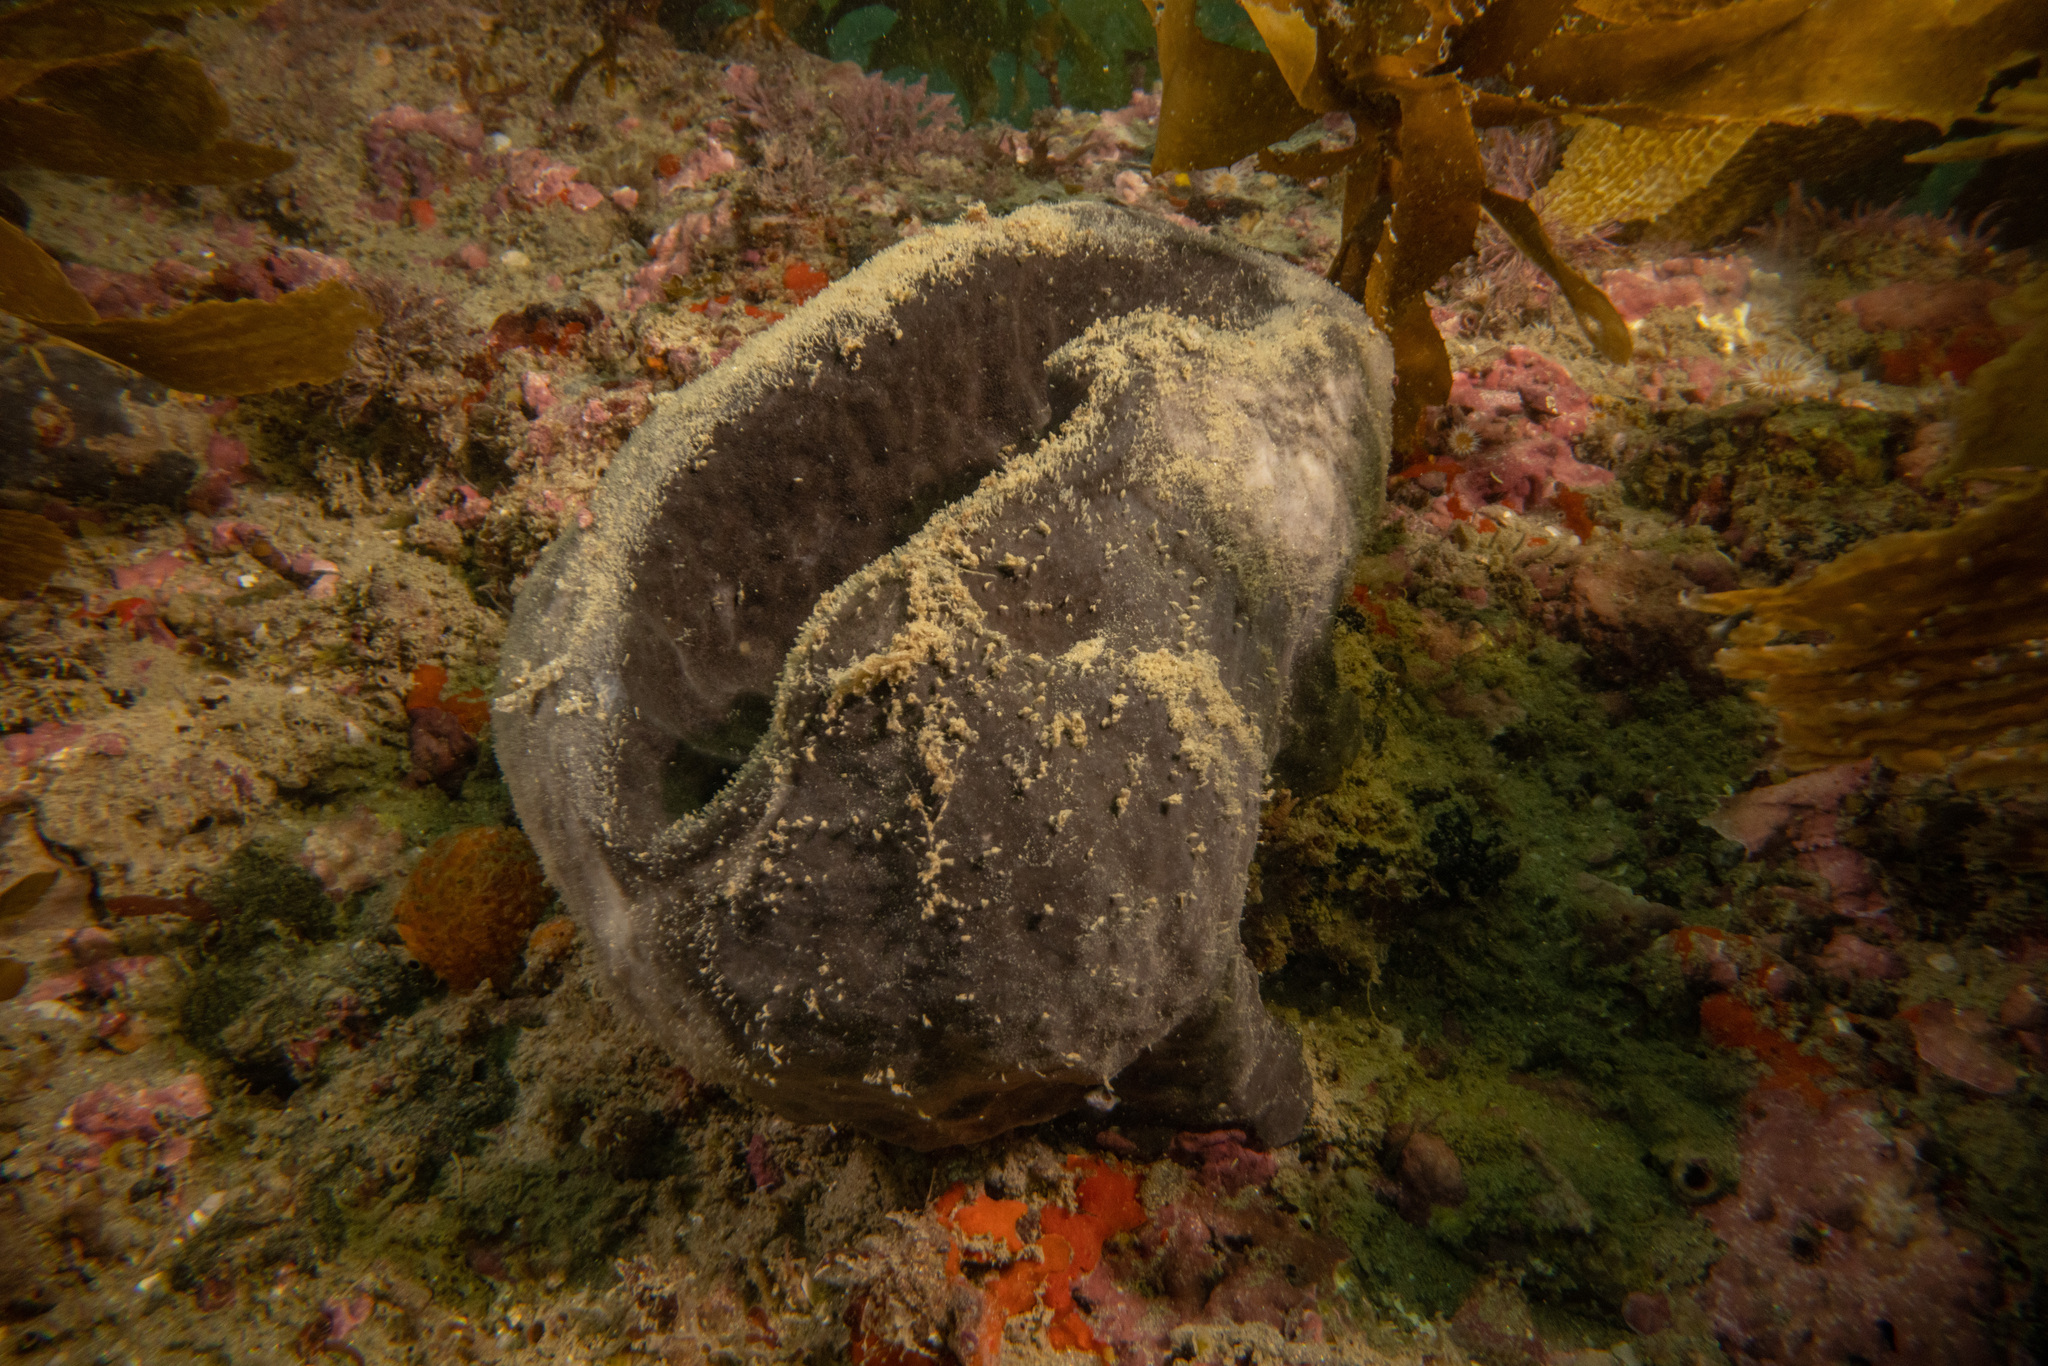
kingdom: Animalia
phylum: Porifera
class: Demospongiae
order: Tetractinellida
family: Ancorinidae
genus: Ecionemia
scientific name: Ecionemia alata
